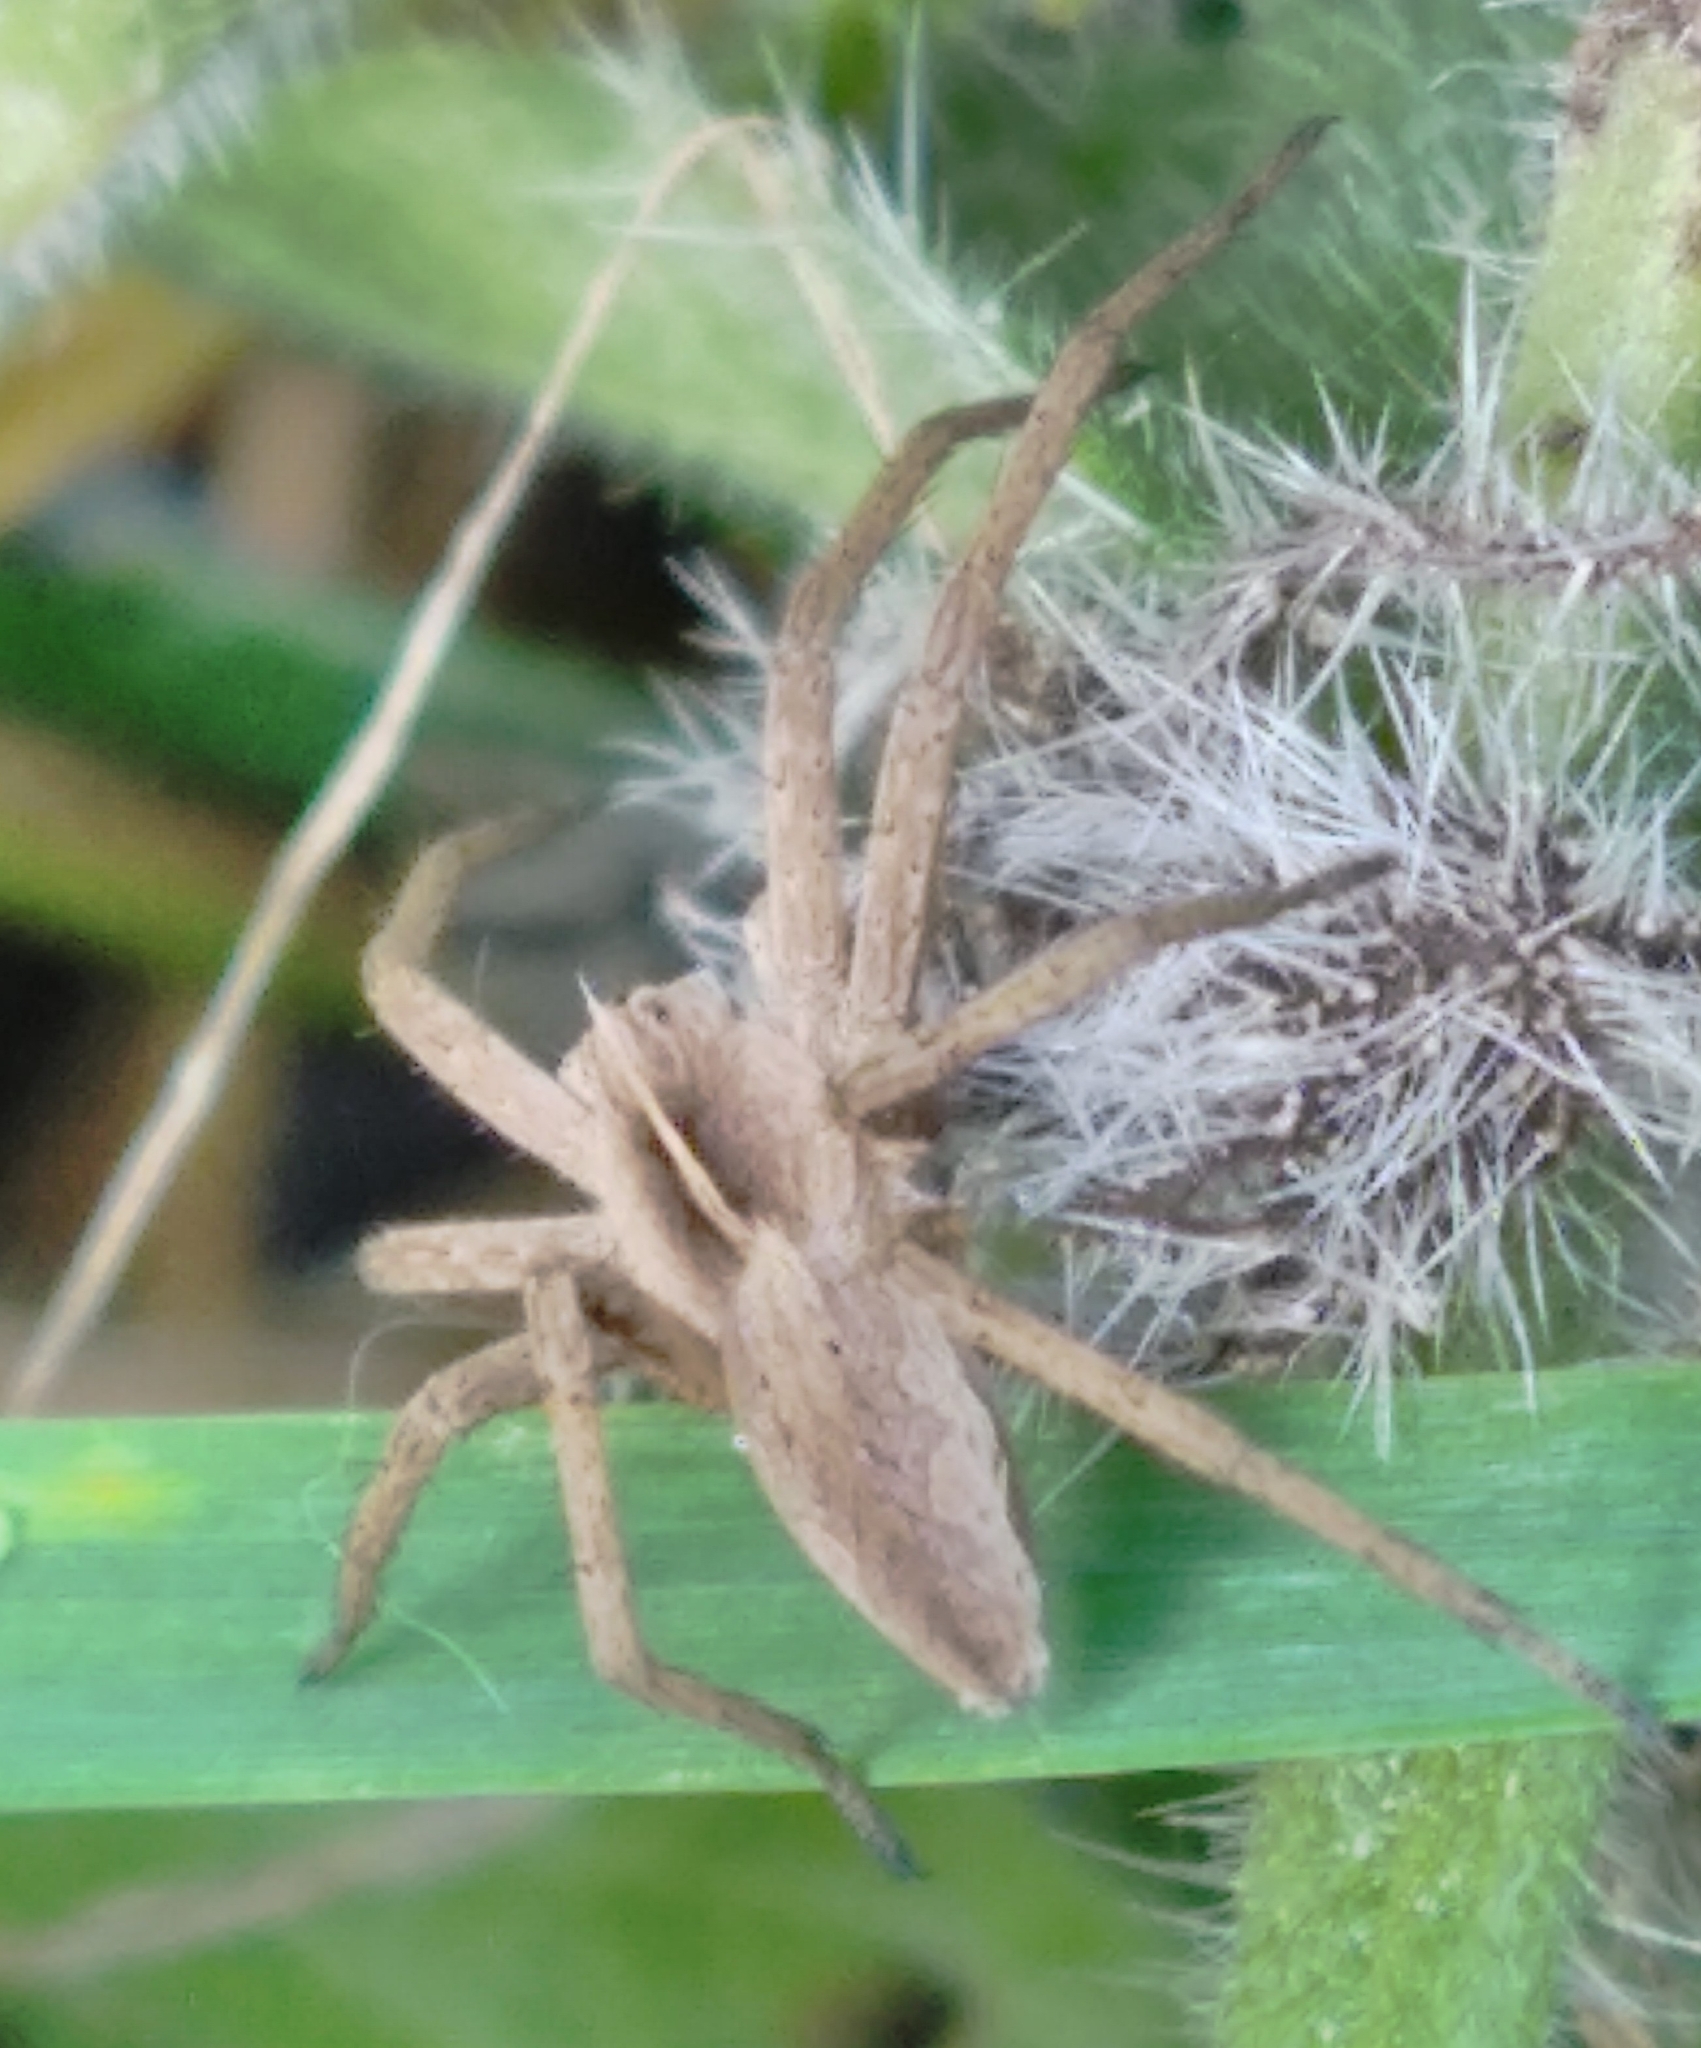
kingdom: Animalia
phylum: Arthropoda
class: Arachnida
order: Araneae
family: Pisauridae
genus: Pisaura
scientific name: Pisaura mirabilis
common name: Tent spider
